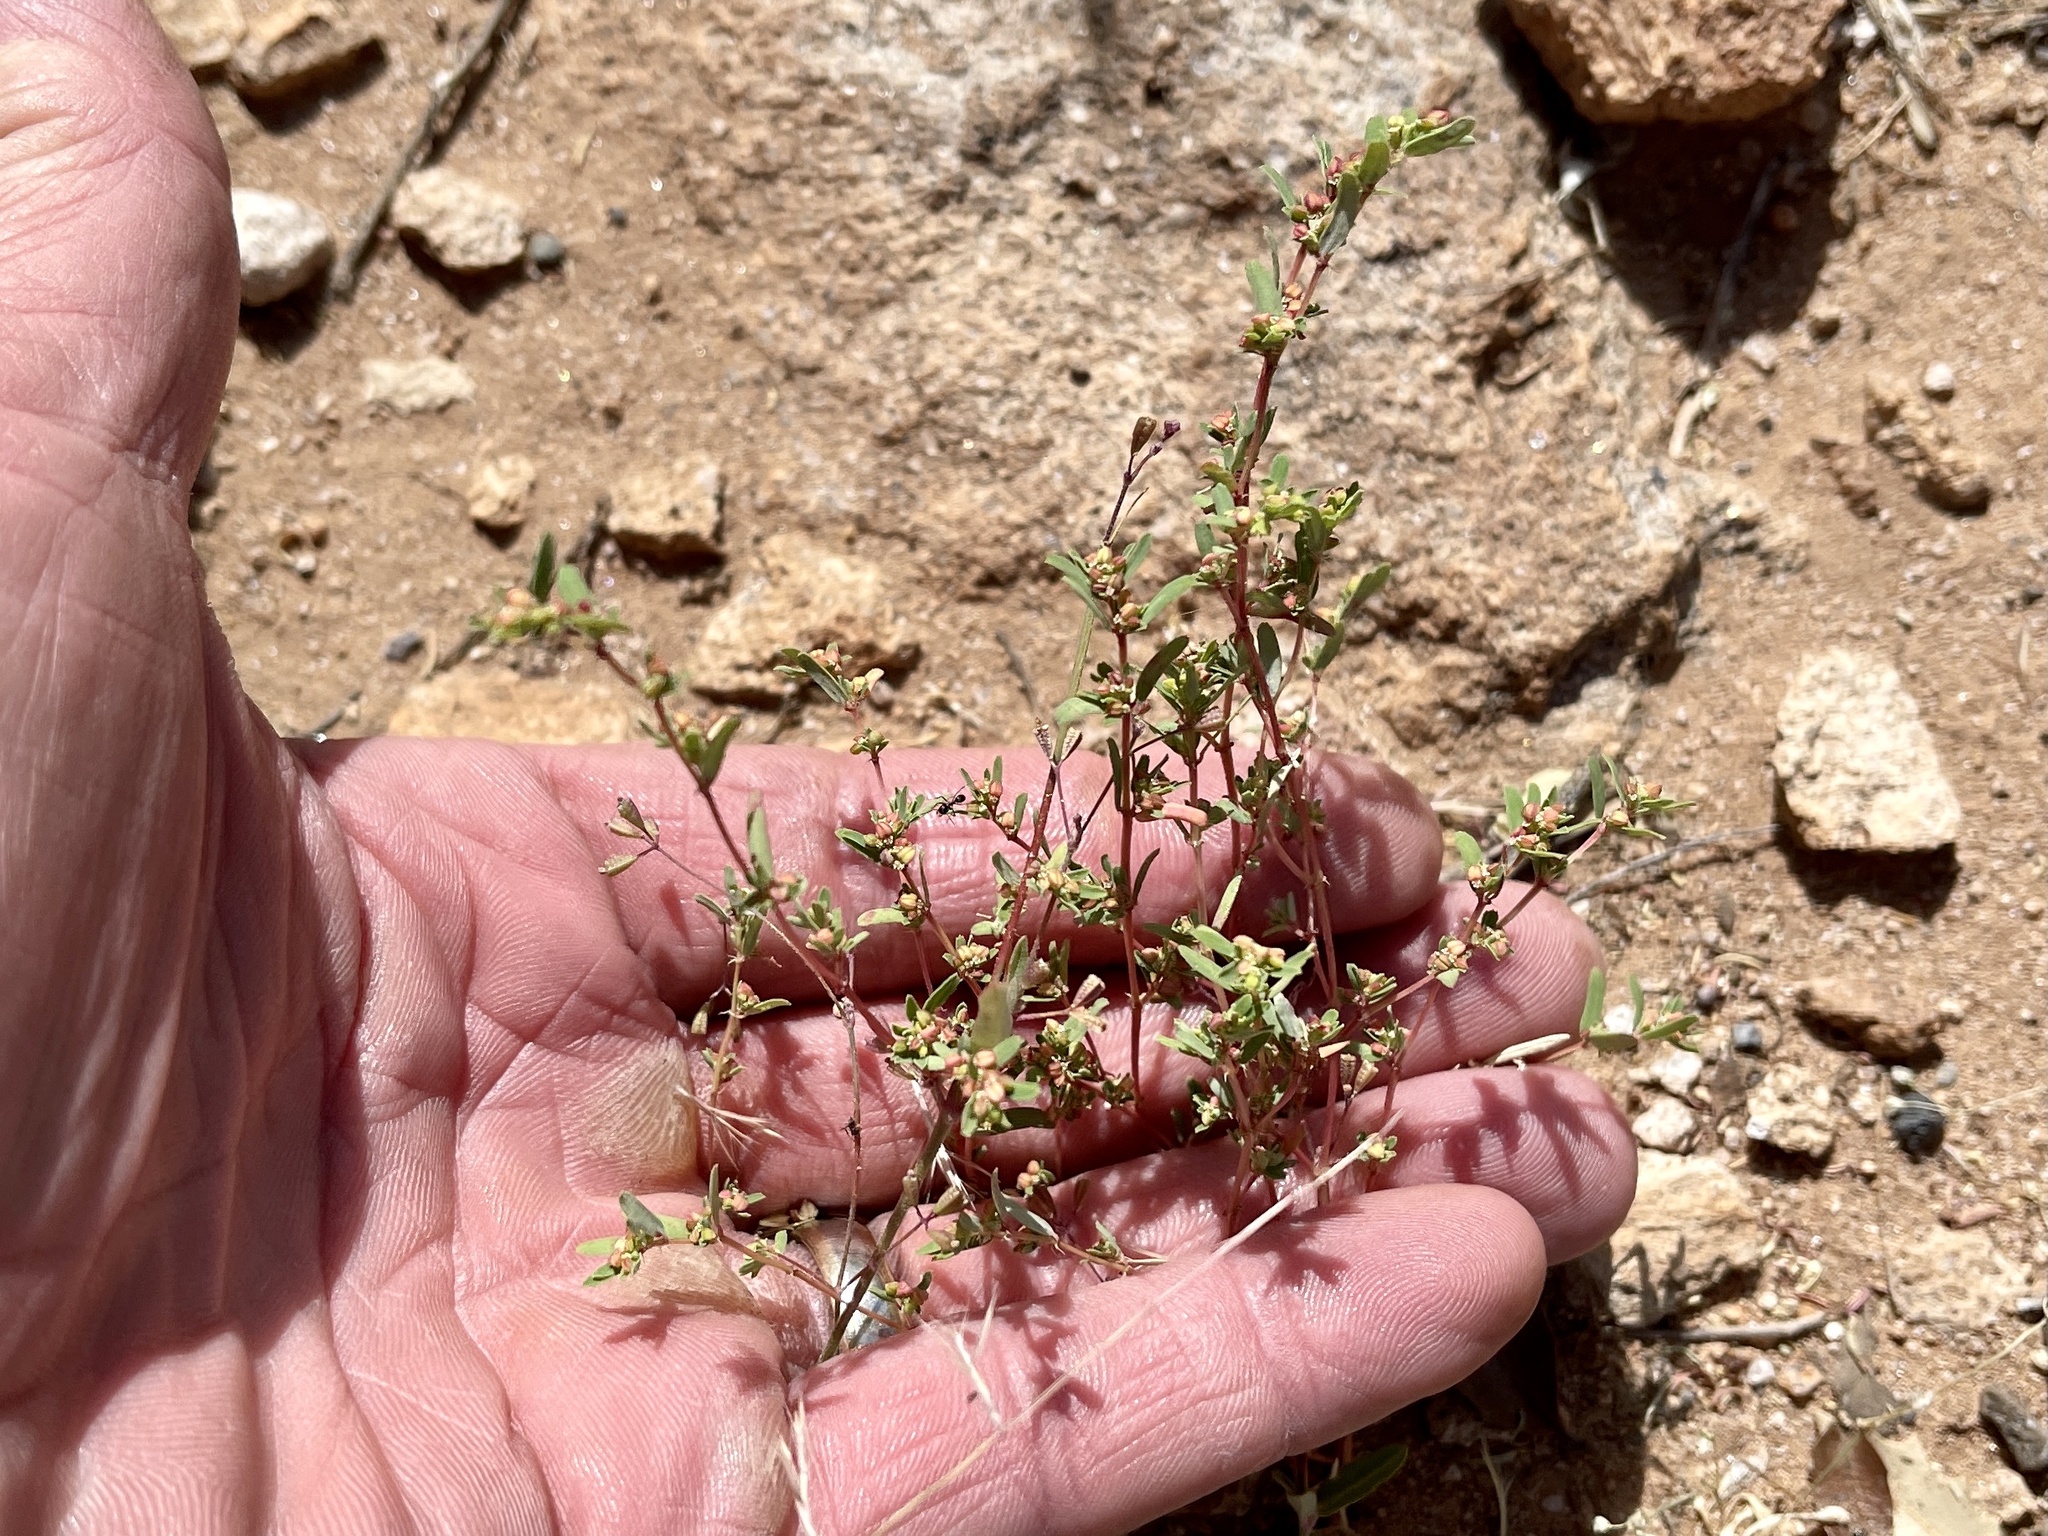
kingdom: Plantae
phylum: Tracheophyta
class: Magnoliopsida
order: Malpighiales
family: Euphorbiaceae
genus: Euphorbia
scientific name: Euphorbia serpillifolia
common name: Thyme-leaf spurge
